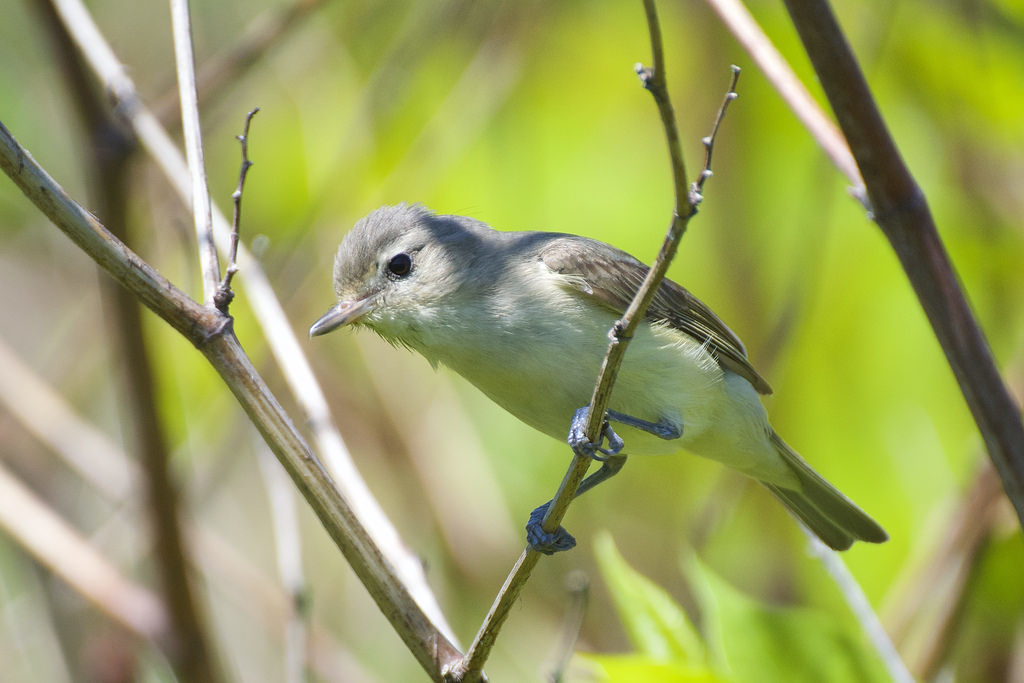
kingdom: Animalia
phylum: Chordata
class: Aves
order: Passeriformes
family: Vireonidae
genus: Vireo
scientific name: Vireo gilvus
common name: Warbling vireo
